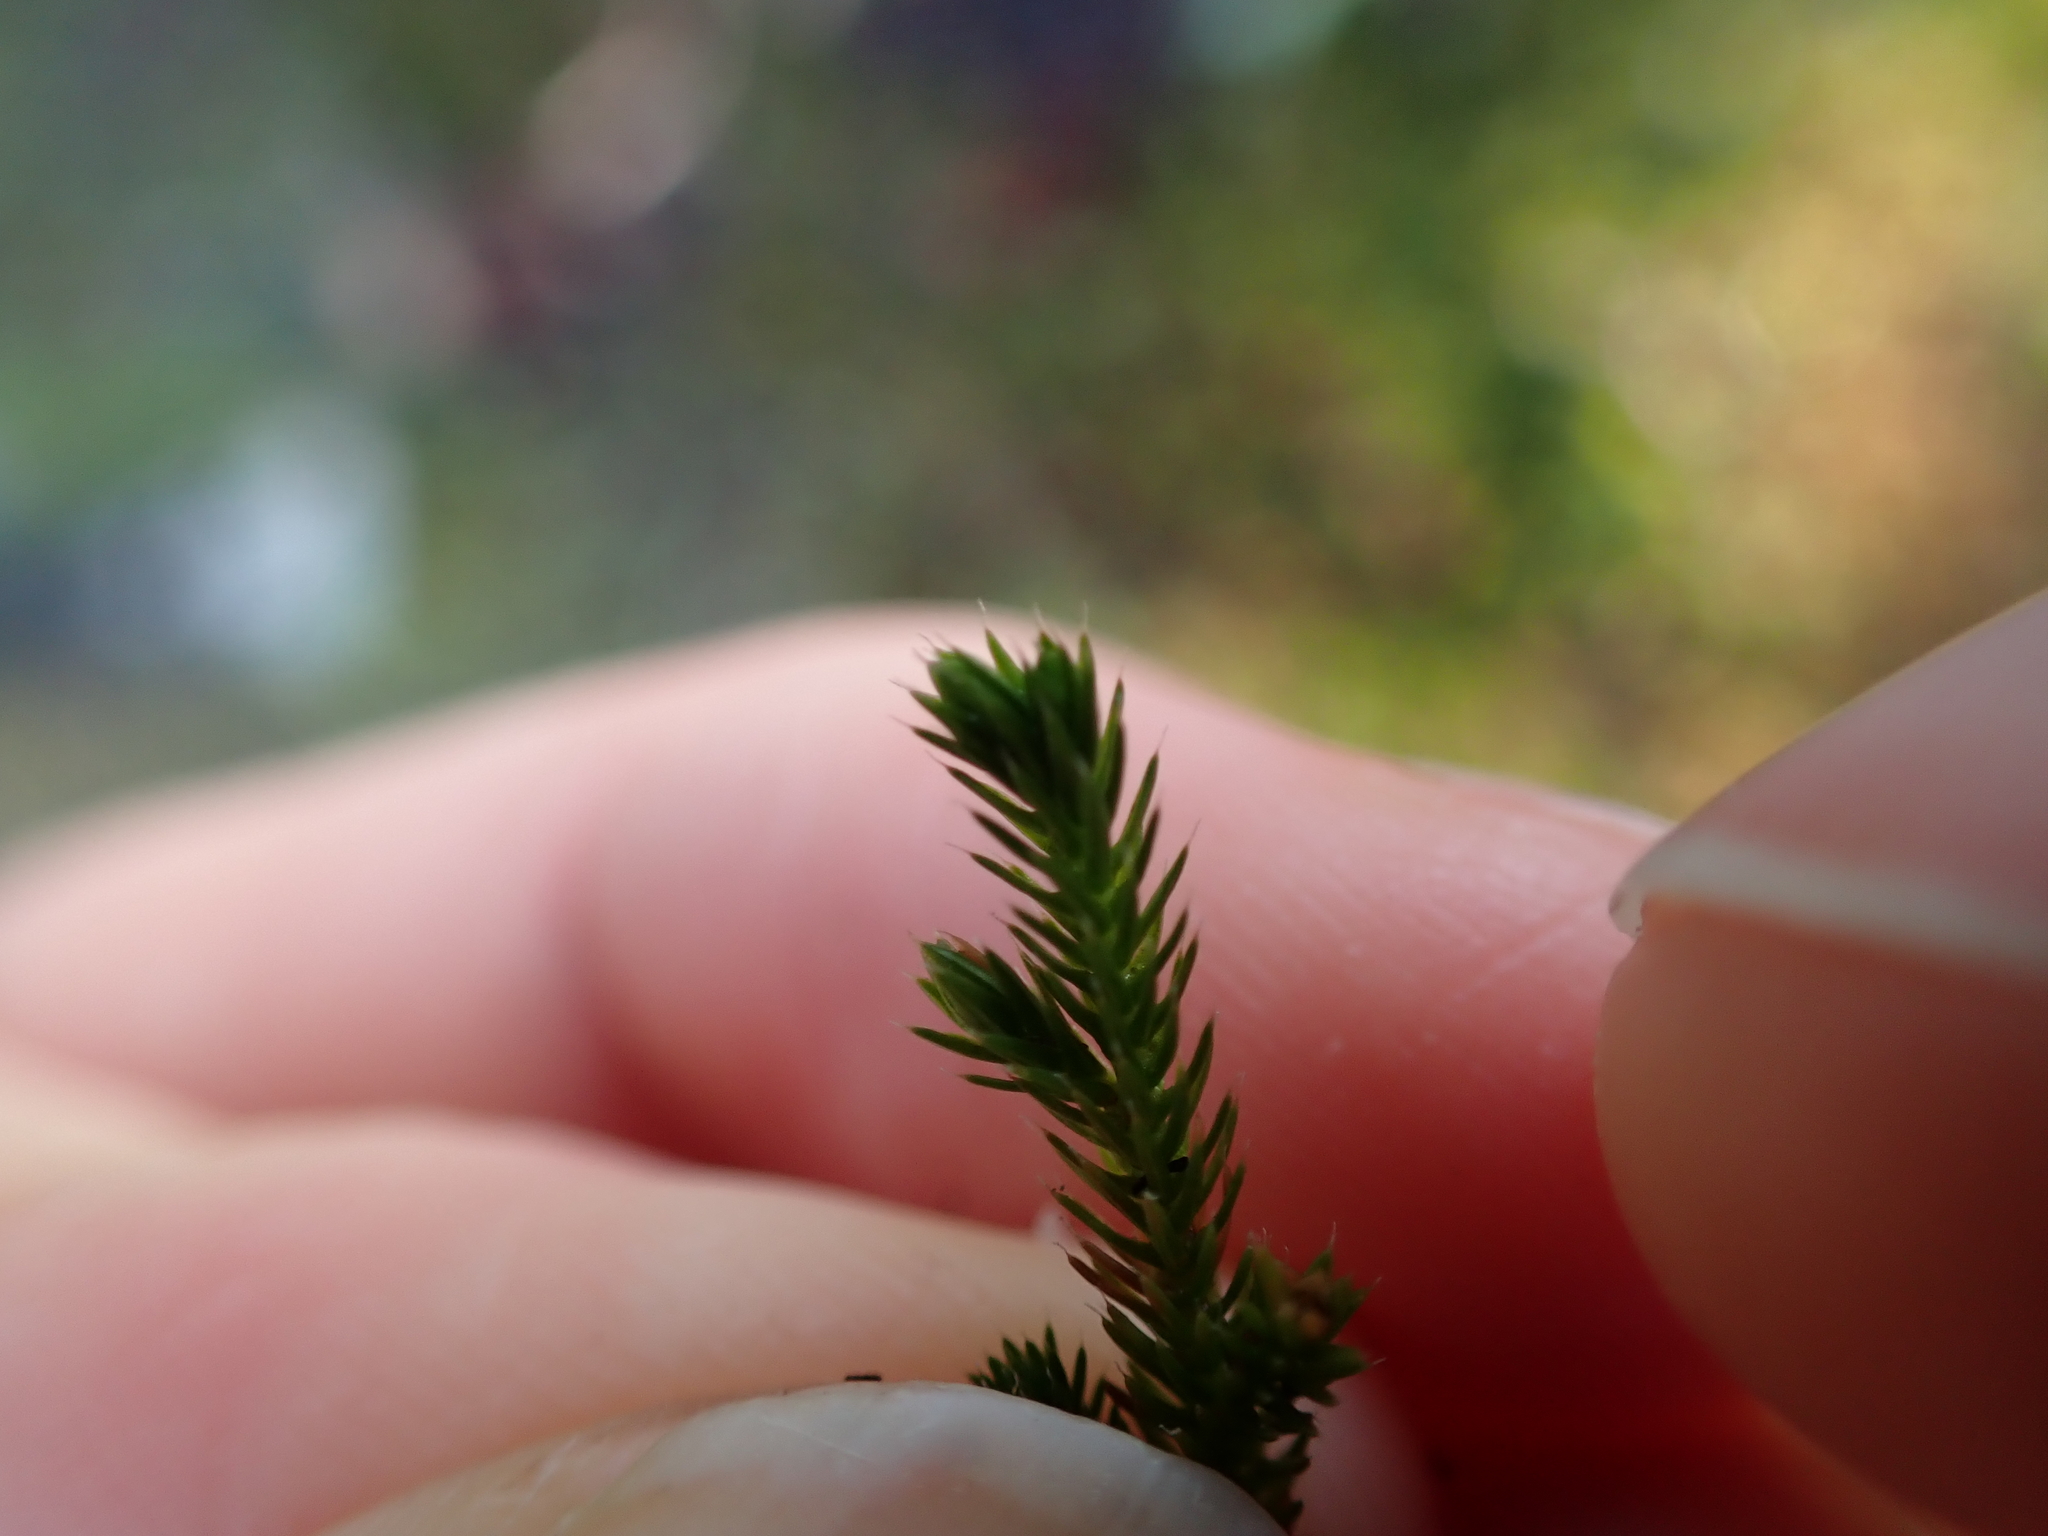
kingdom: Plantae
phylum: Tracheophyta
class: Lycopodiopsida
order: Selaginellales
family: Selaginellaceae
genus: Selaginella
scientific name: Selaginella wallacei
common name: Wallace's selaginella
